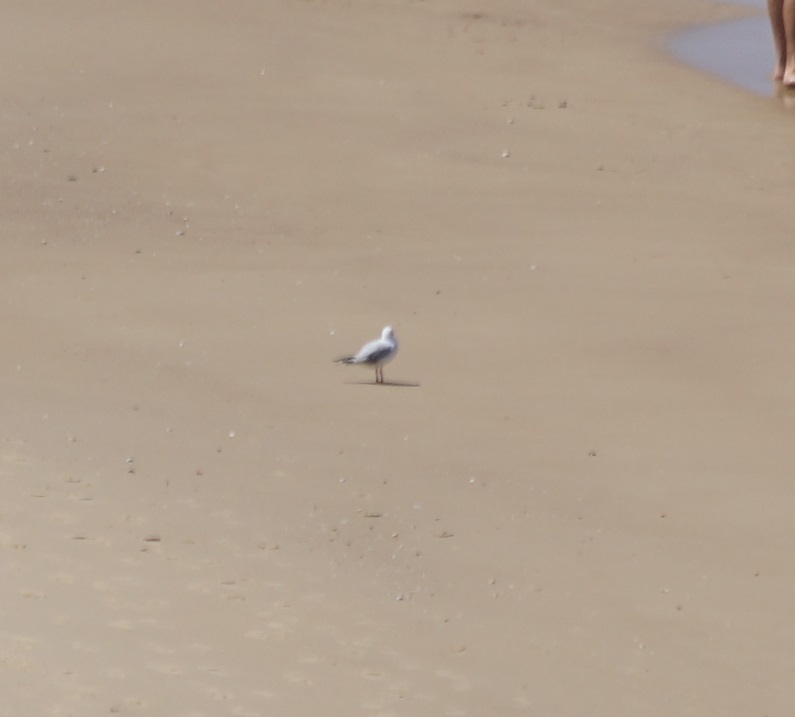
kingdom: Animalia
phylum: Chordata
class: Aves
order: Charadriiformes
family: Laridae
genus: Chroicocephalus
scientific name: Chroicocephalus novaehollandiae
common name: Silver gull
